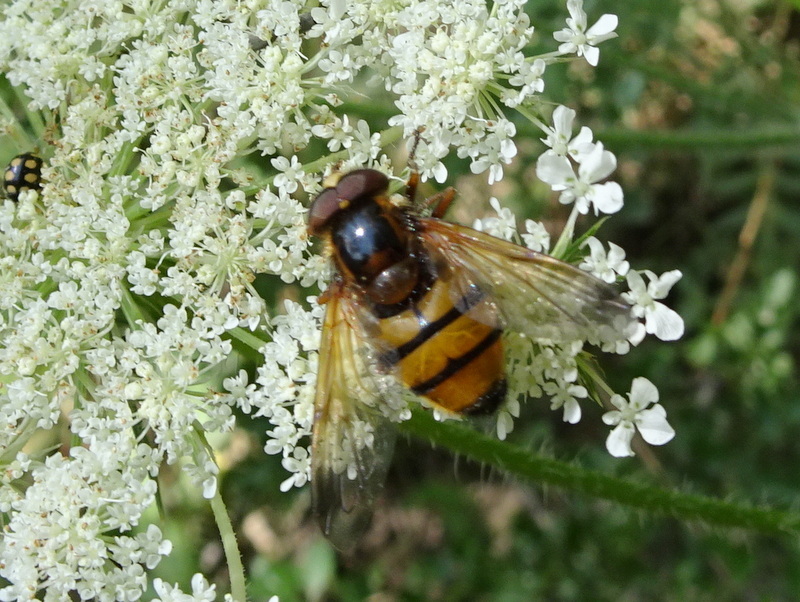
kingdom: Animalia
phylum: Arthropoda
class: Insecta
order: Diptera
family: Syrphidae
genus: Volucella
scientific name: Volucella inanis
